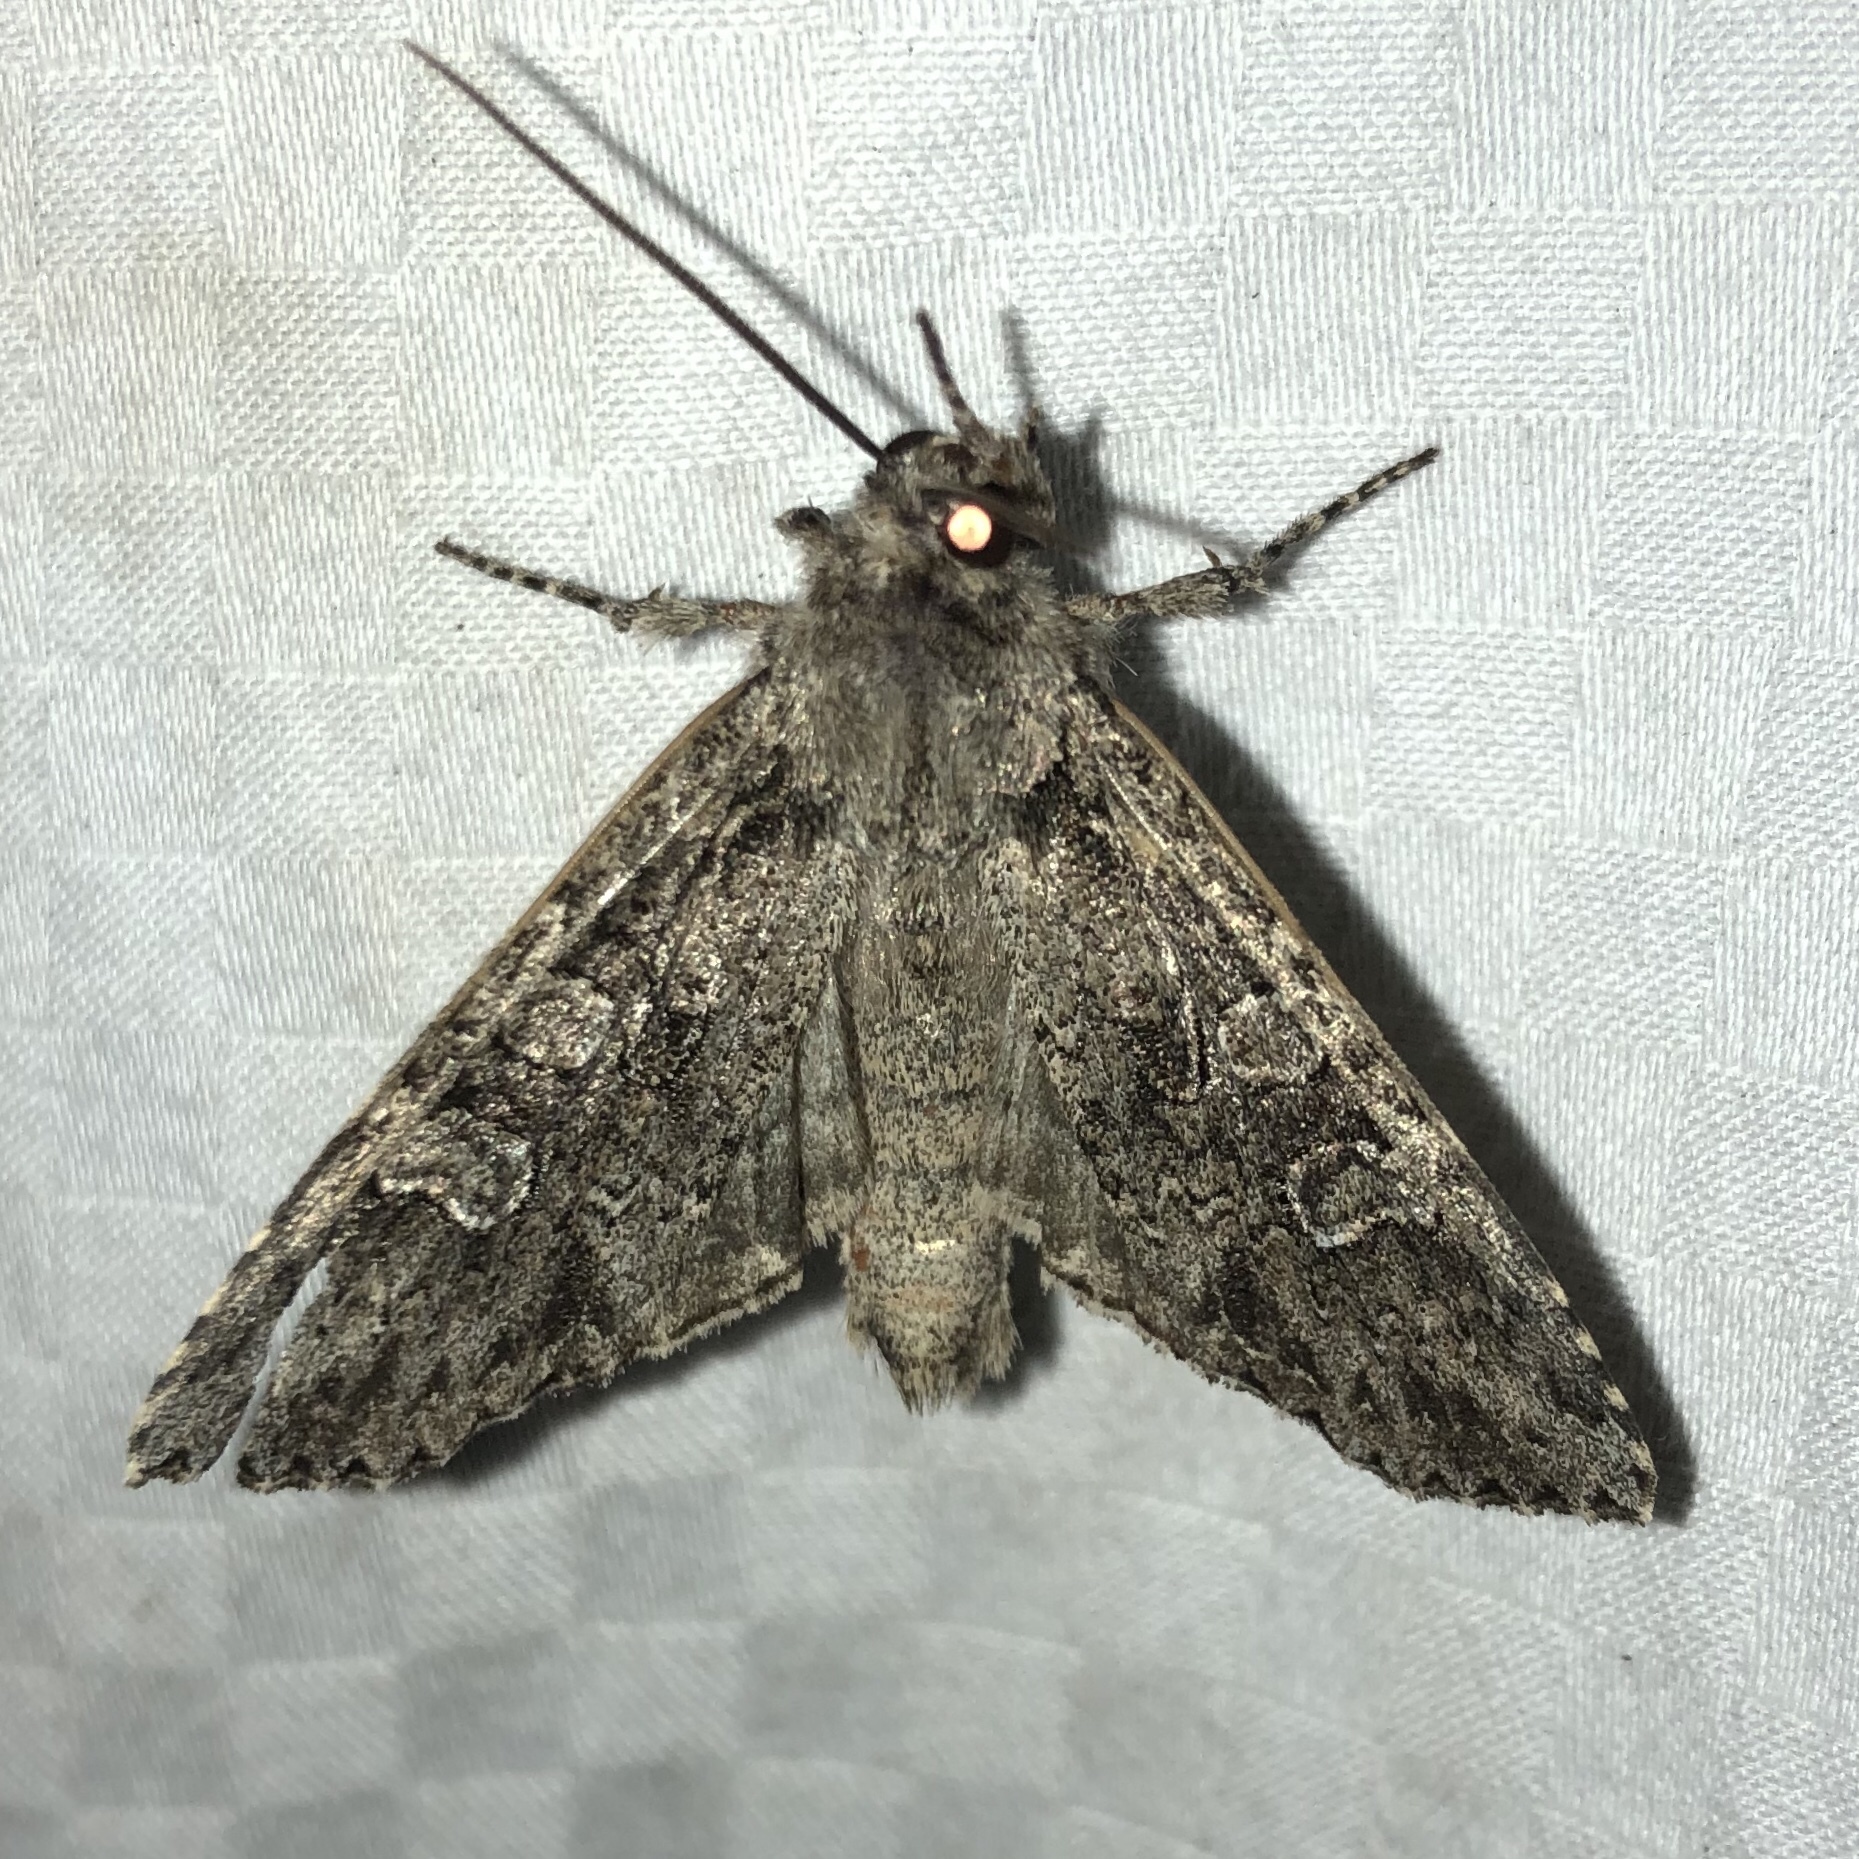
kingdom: Animalia
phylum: Arthropoda
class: Insecta
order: Lepidoptera
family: Noctuidae
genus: Polia
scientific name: Polia imbrifera
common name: Cloudy arches moth
